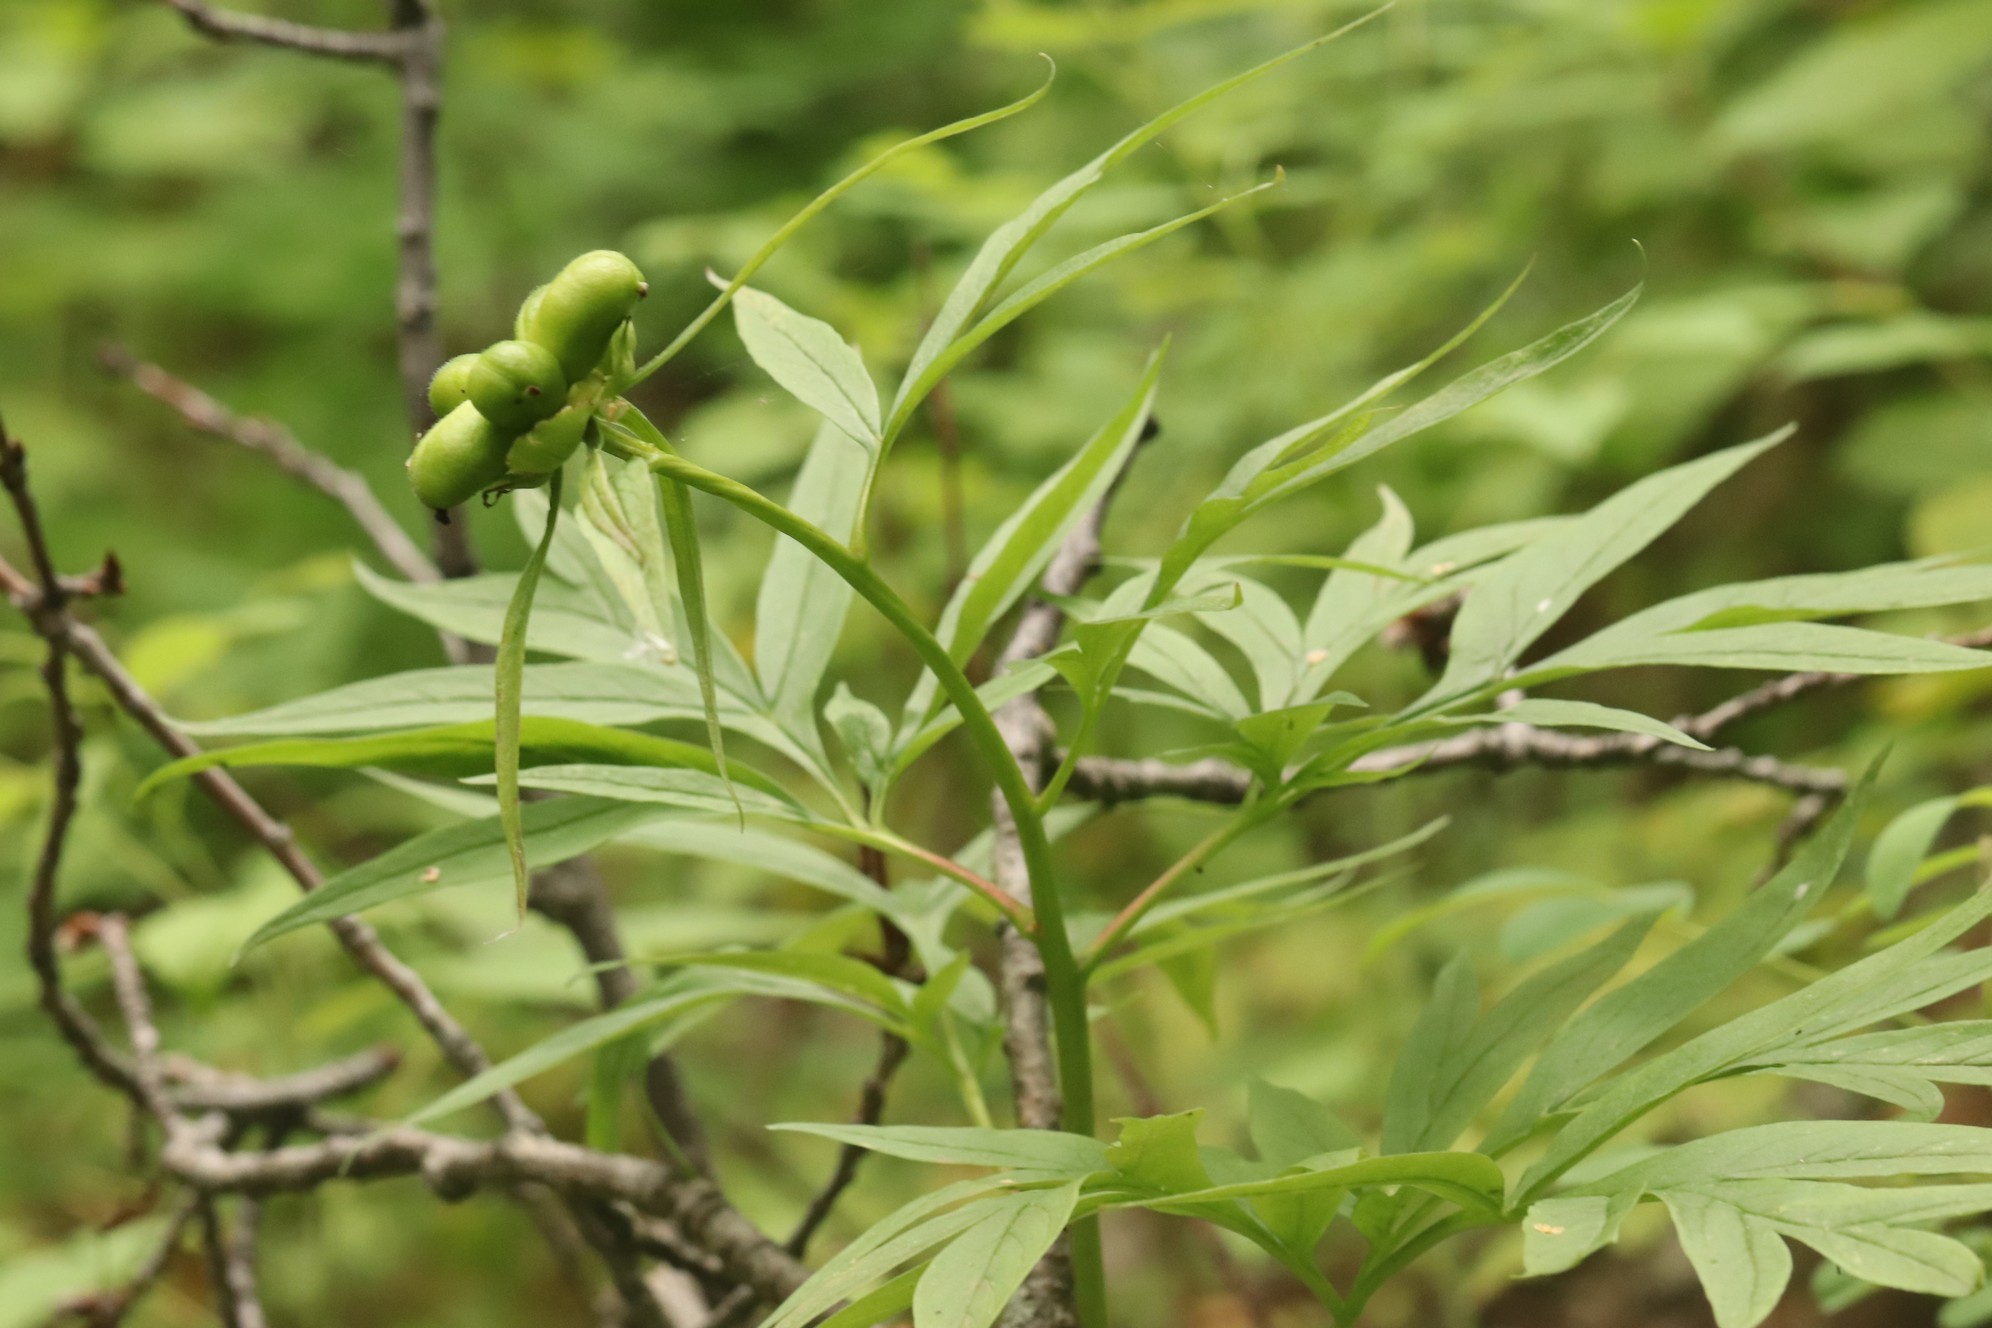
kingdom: Plantae
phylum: Tracheophyta
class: Magnoliopsida
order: Saxifragales
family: Paeoniaceae
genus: Paeonia
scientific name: Paeonia anomala
